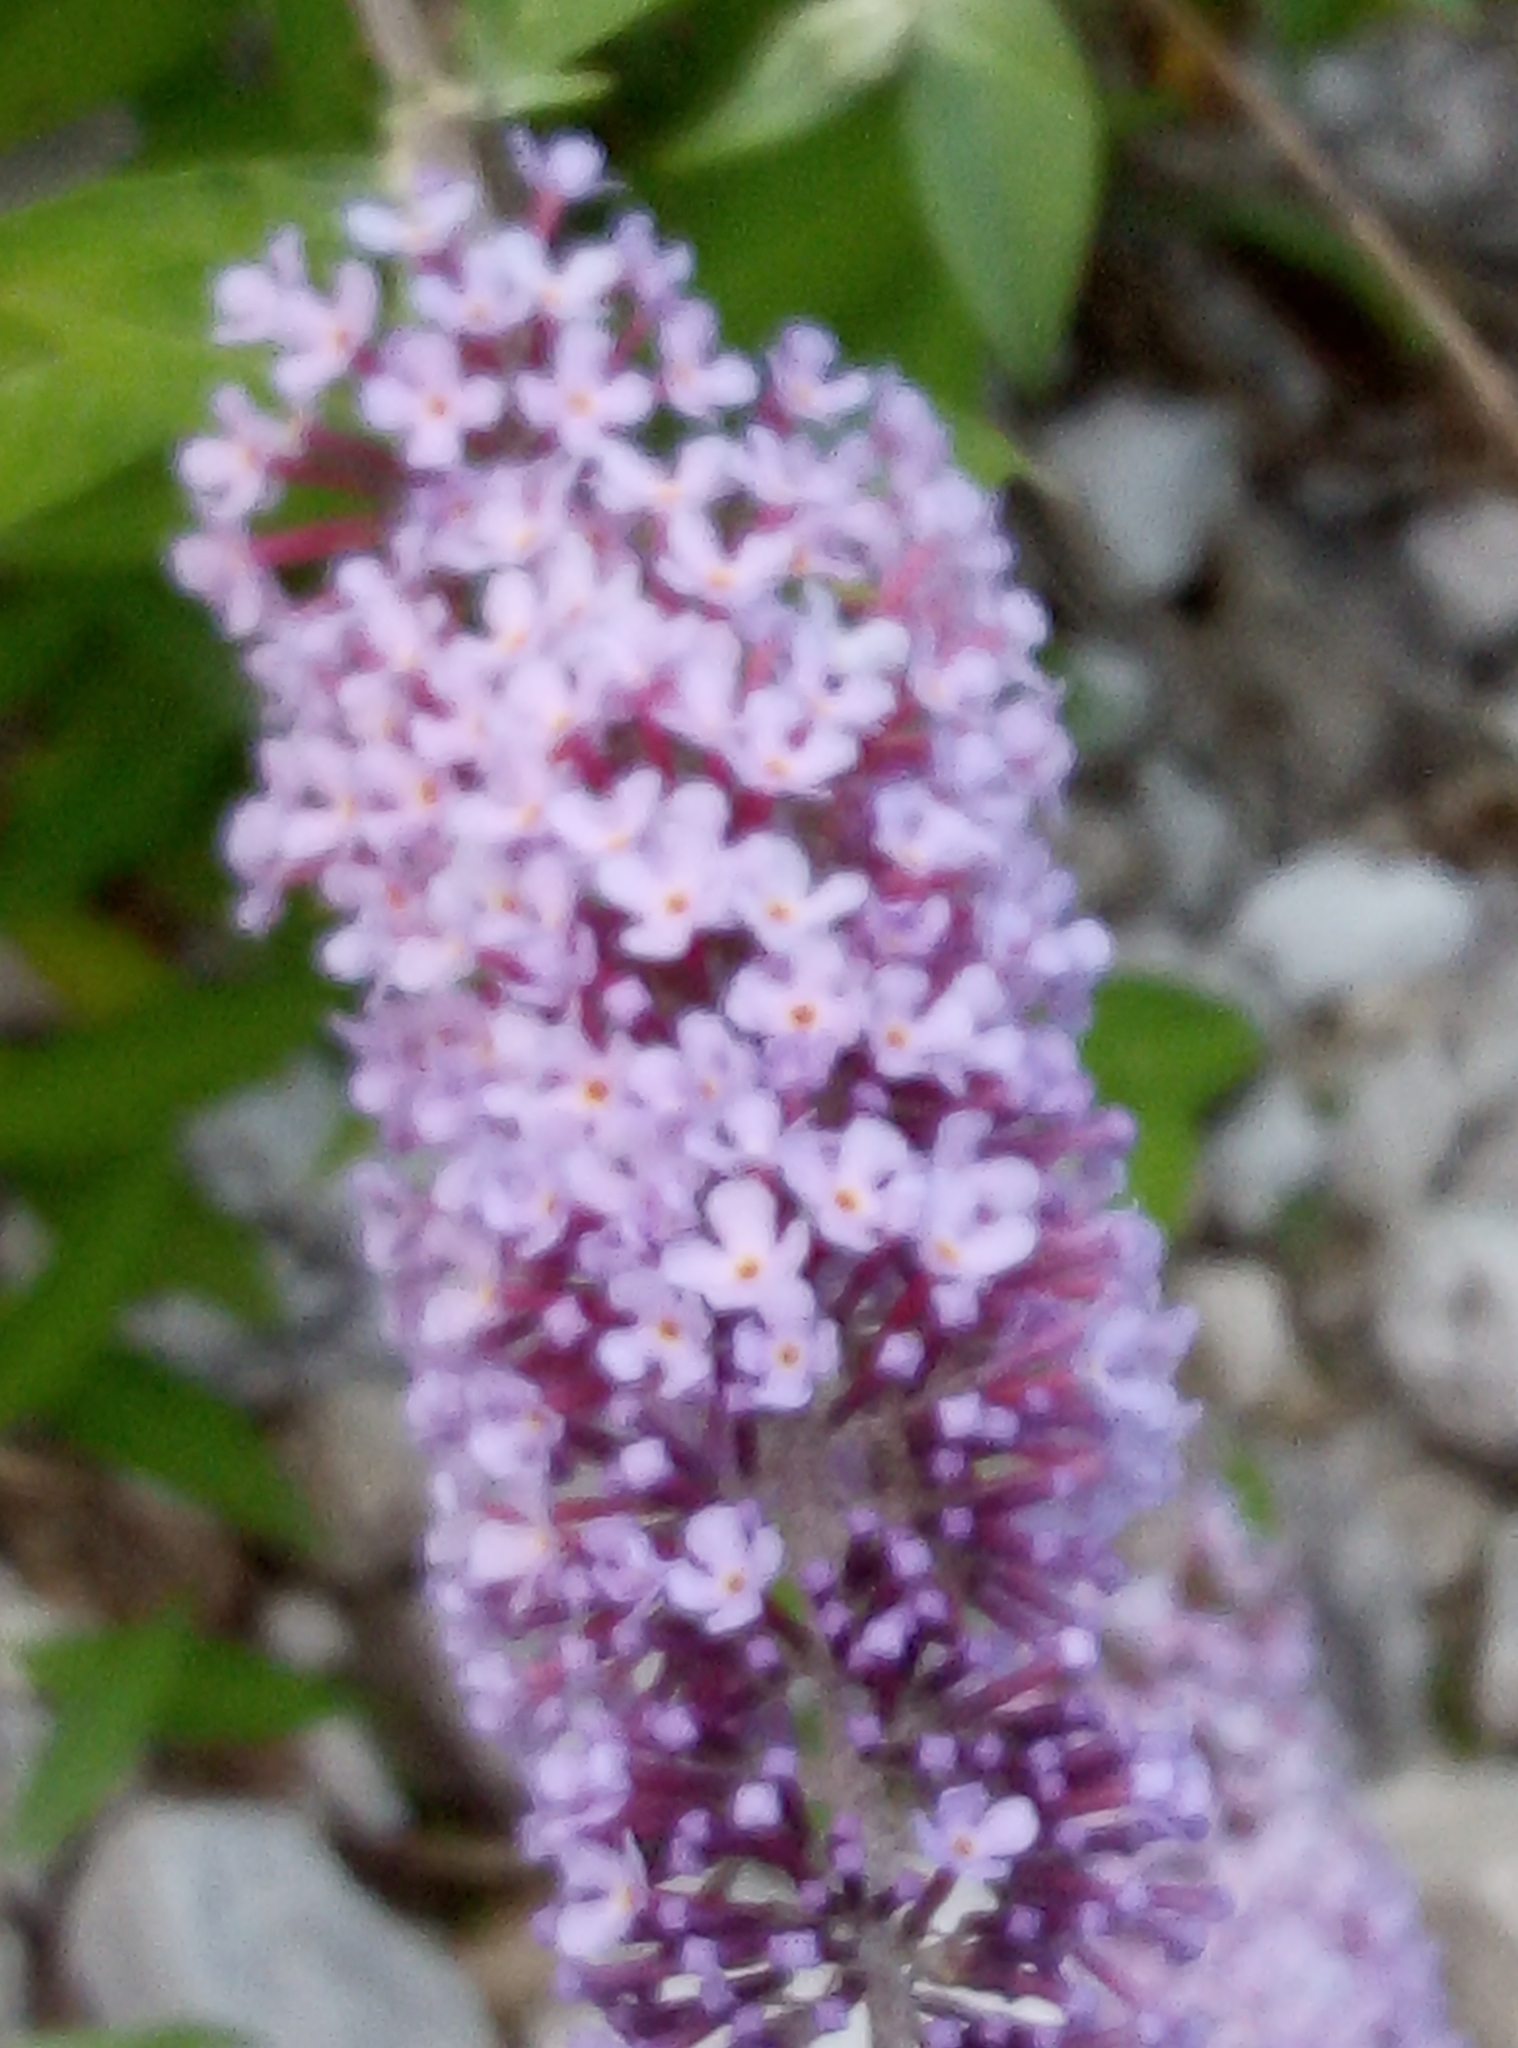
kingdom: Plantae
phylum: Tracheophyta
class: Magnoliopsida
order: Lamiales
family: Scrophulariaceae
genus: Buddleja
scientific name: Buddleja davidii
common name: Butterfly-bush
